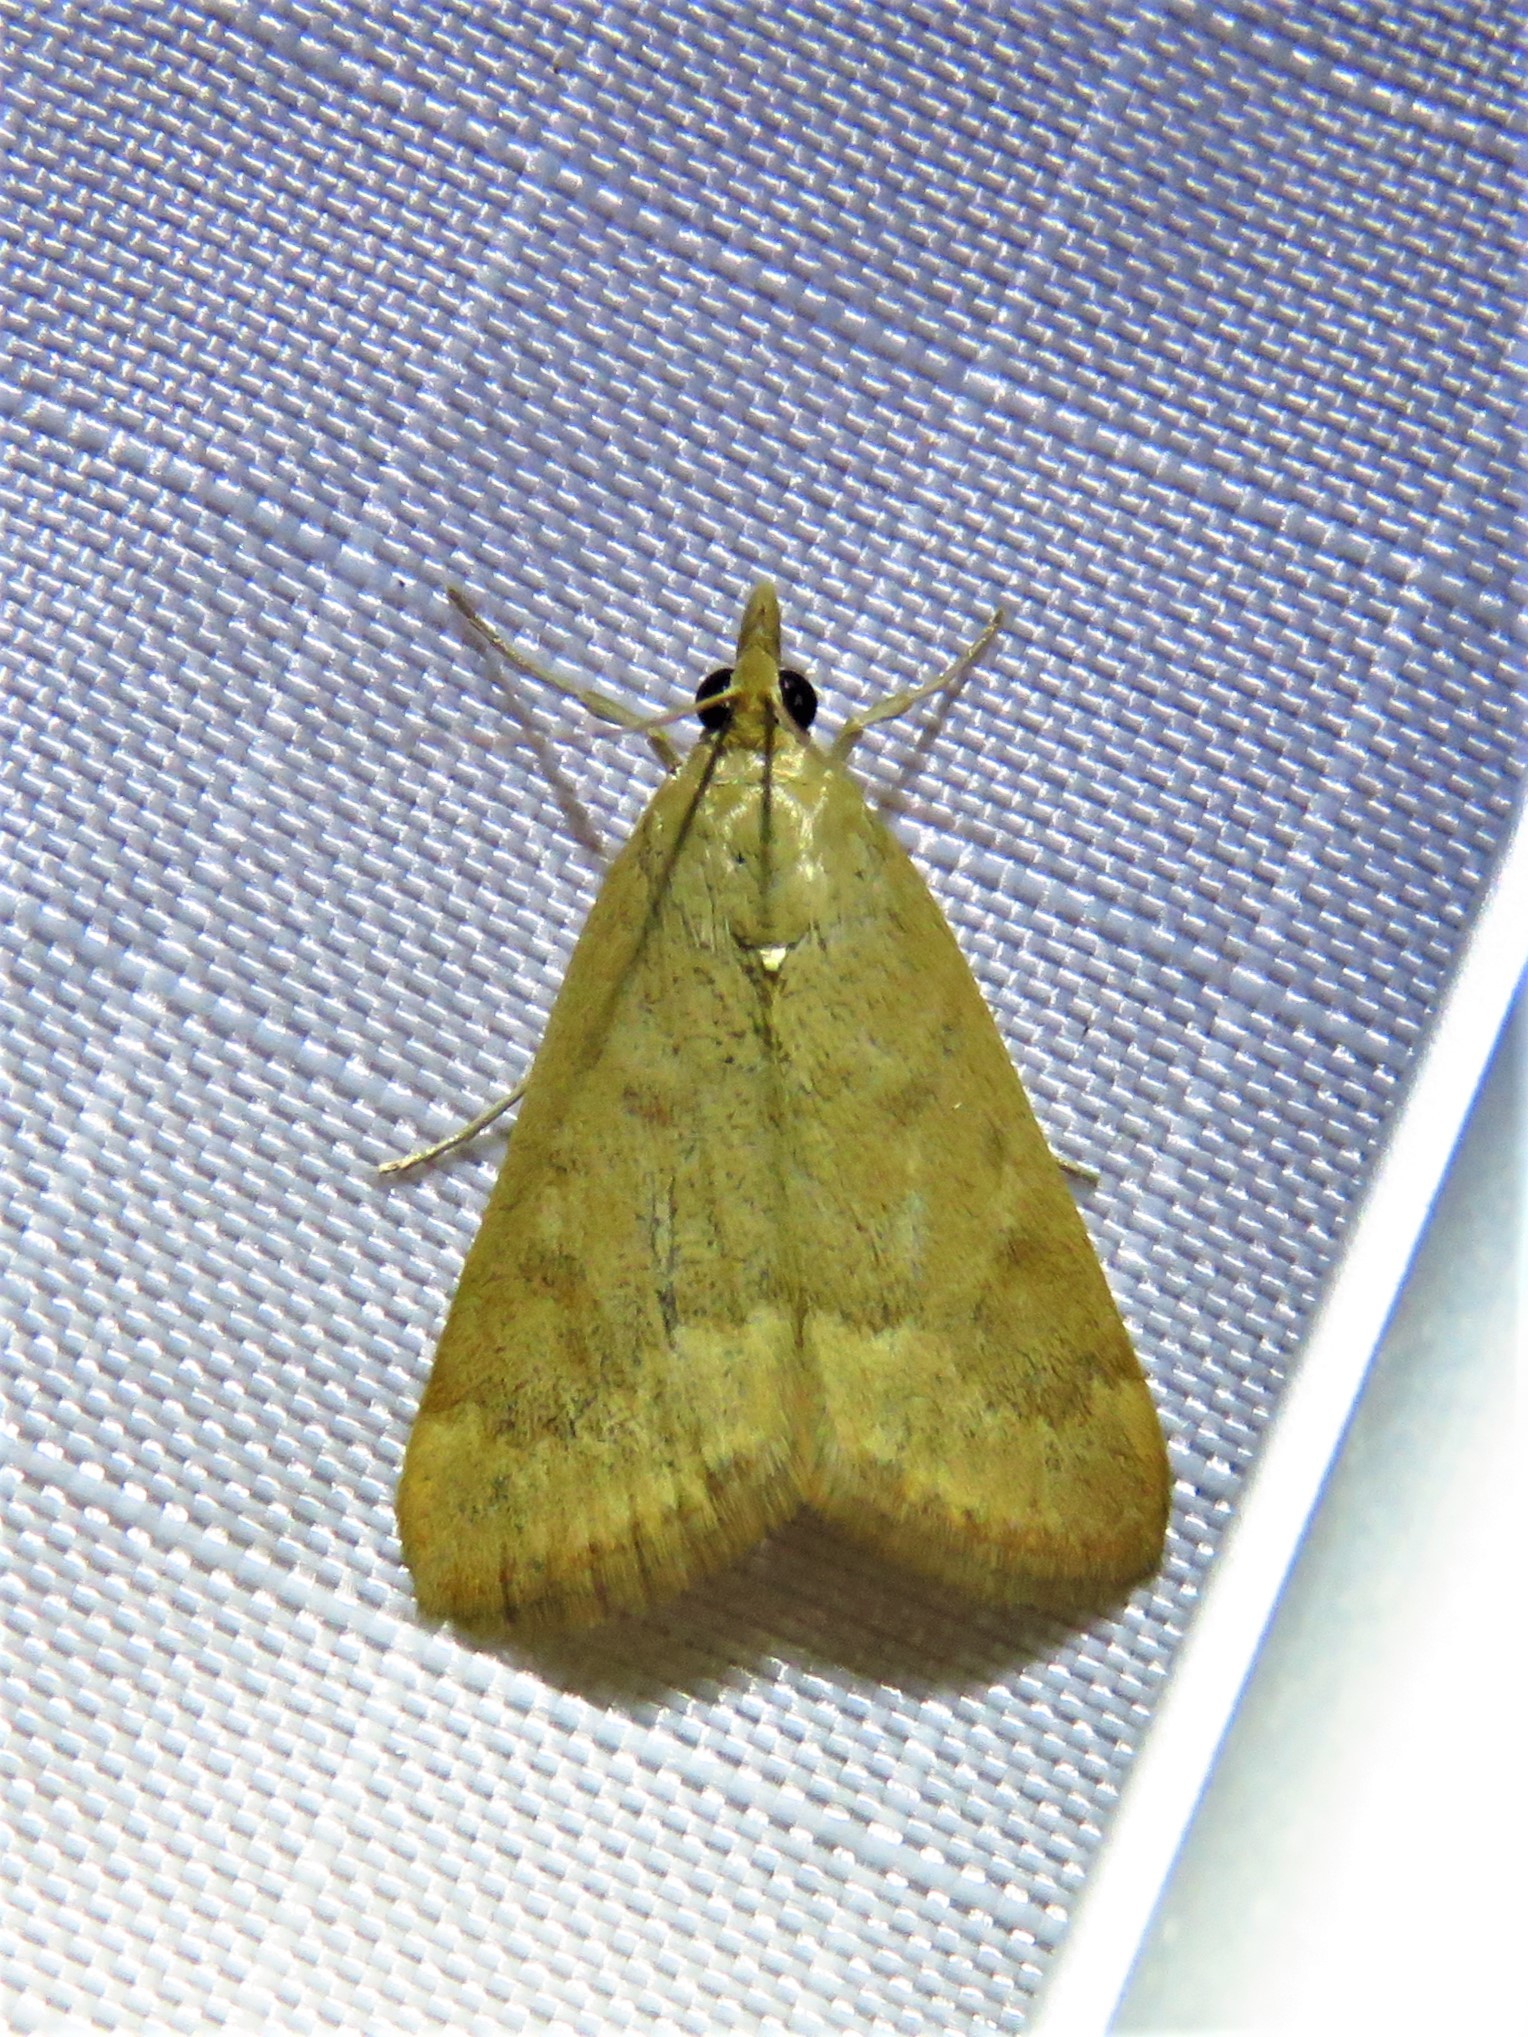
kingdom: Animalia
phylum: Arthropoda
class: Insecta
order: Lepidoptera
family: Crambidae
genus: Achyra
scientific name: Achyra rantalis
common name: Garden webworm
